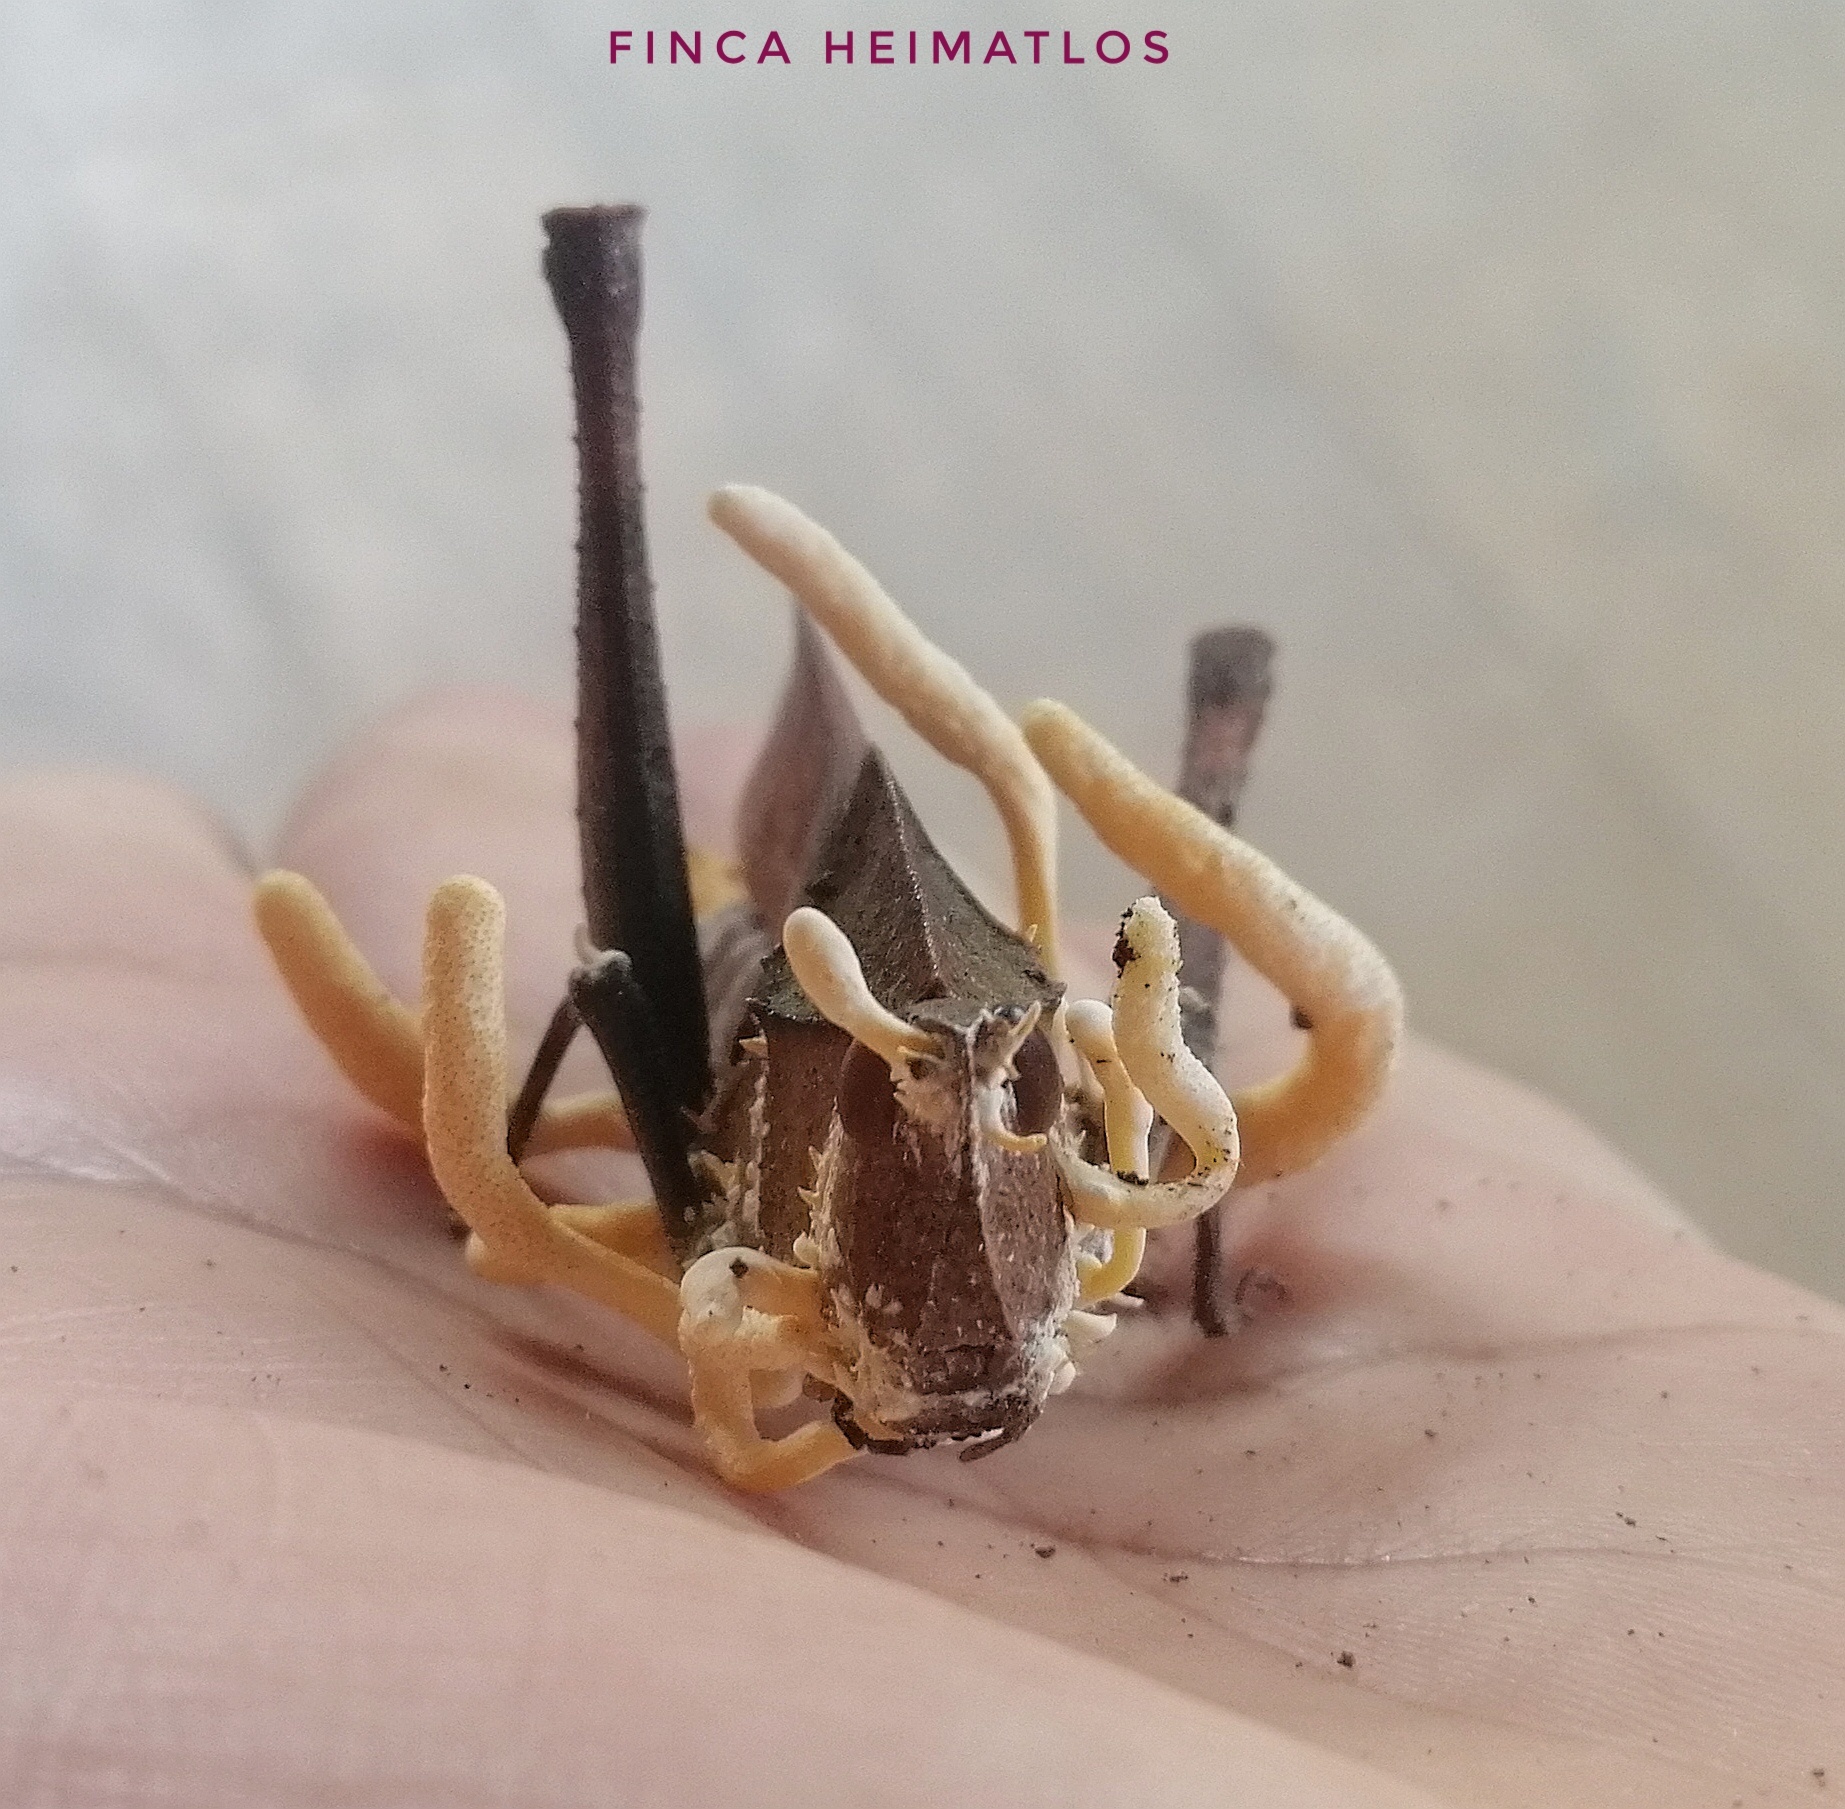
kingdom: Fungi
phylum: Ascomycota
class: Sordariomycetes
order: Hypocreales
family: Cordycipitaceae
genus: Beauveria
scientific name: Beauveria locustiphila
